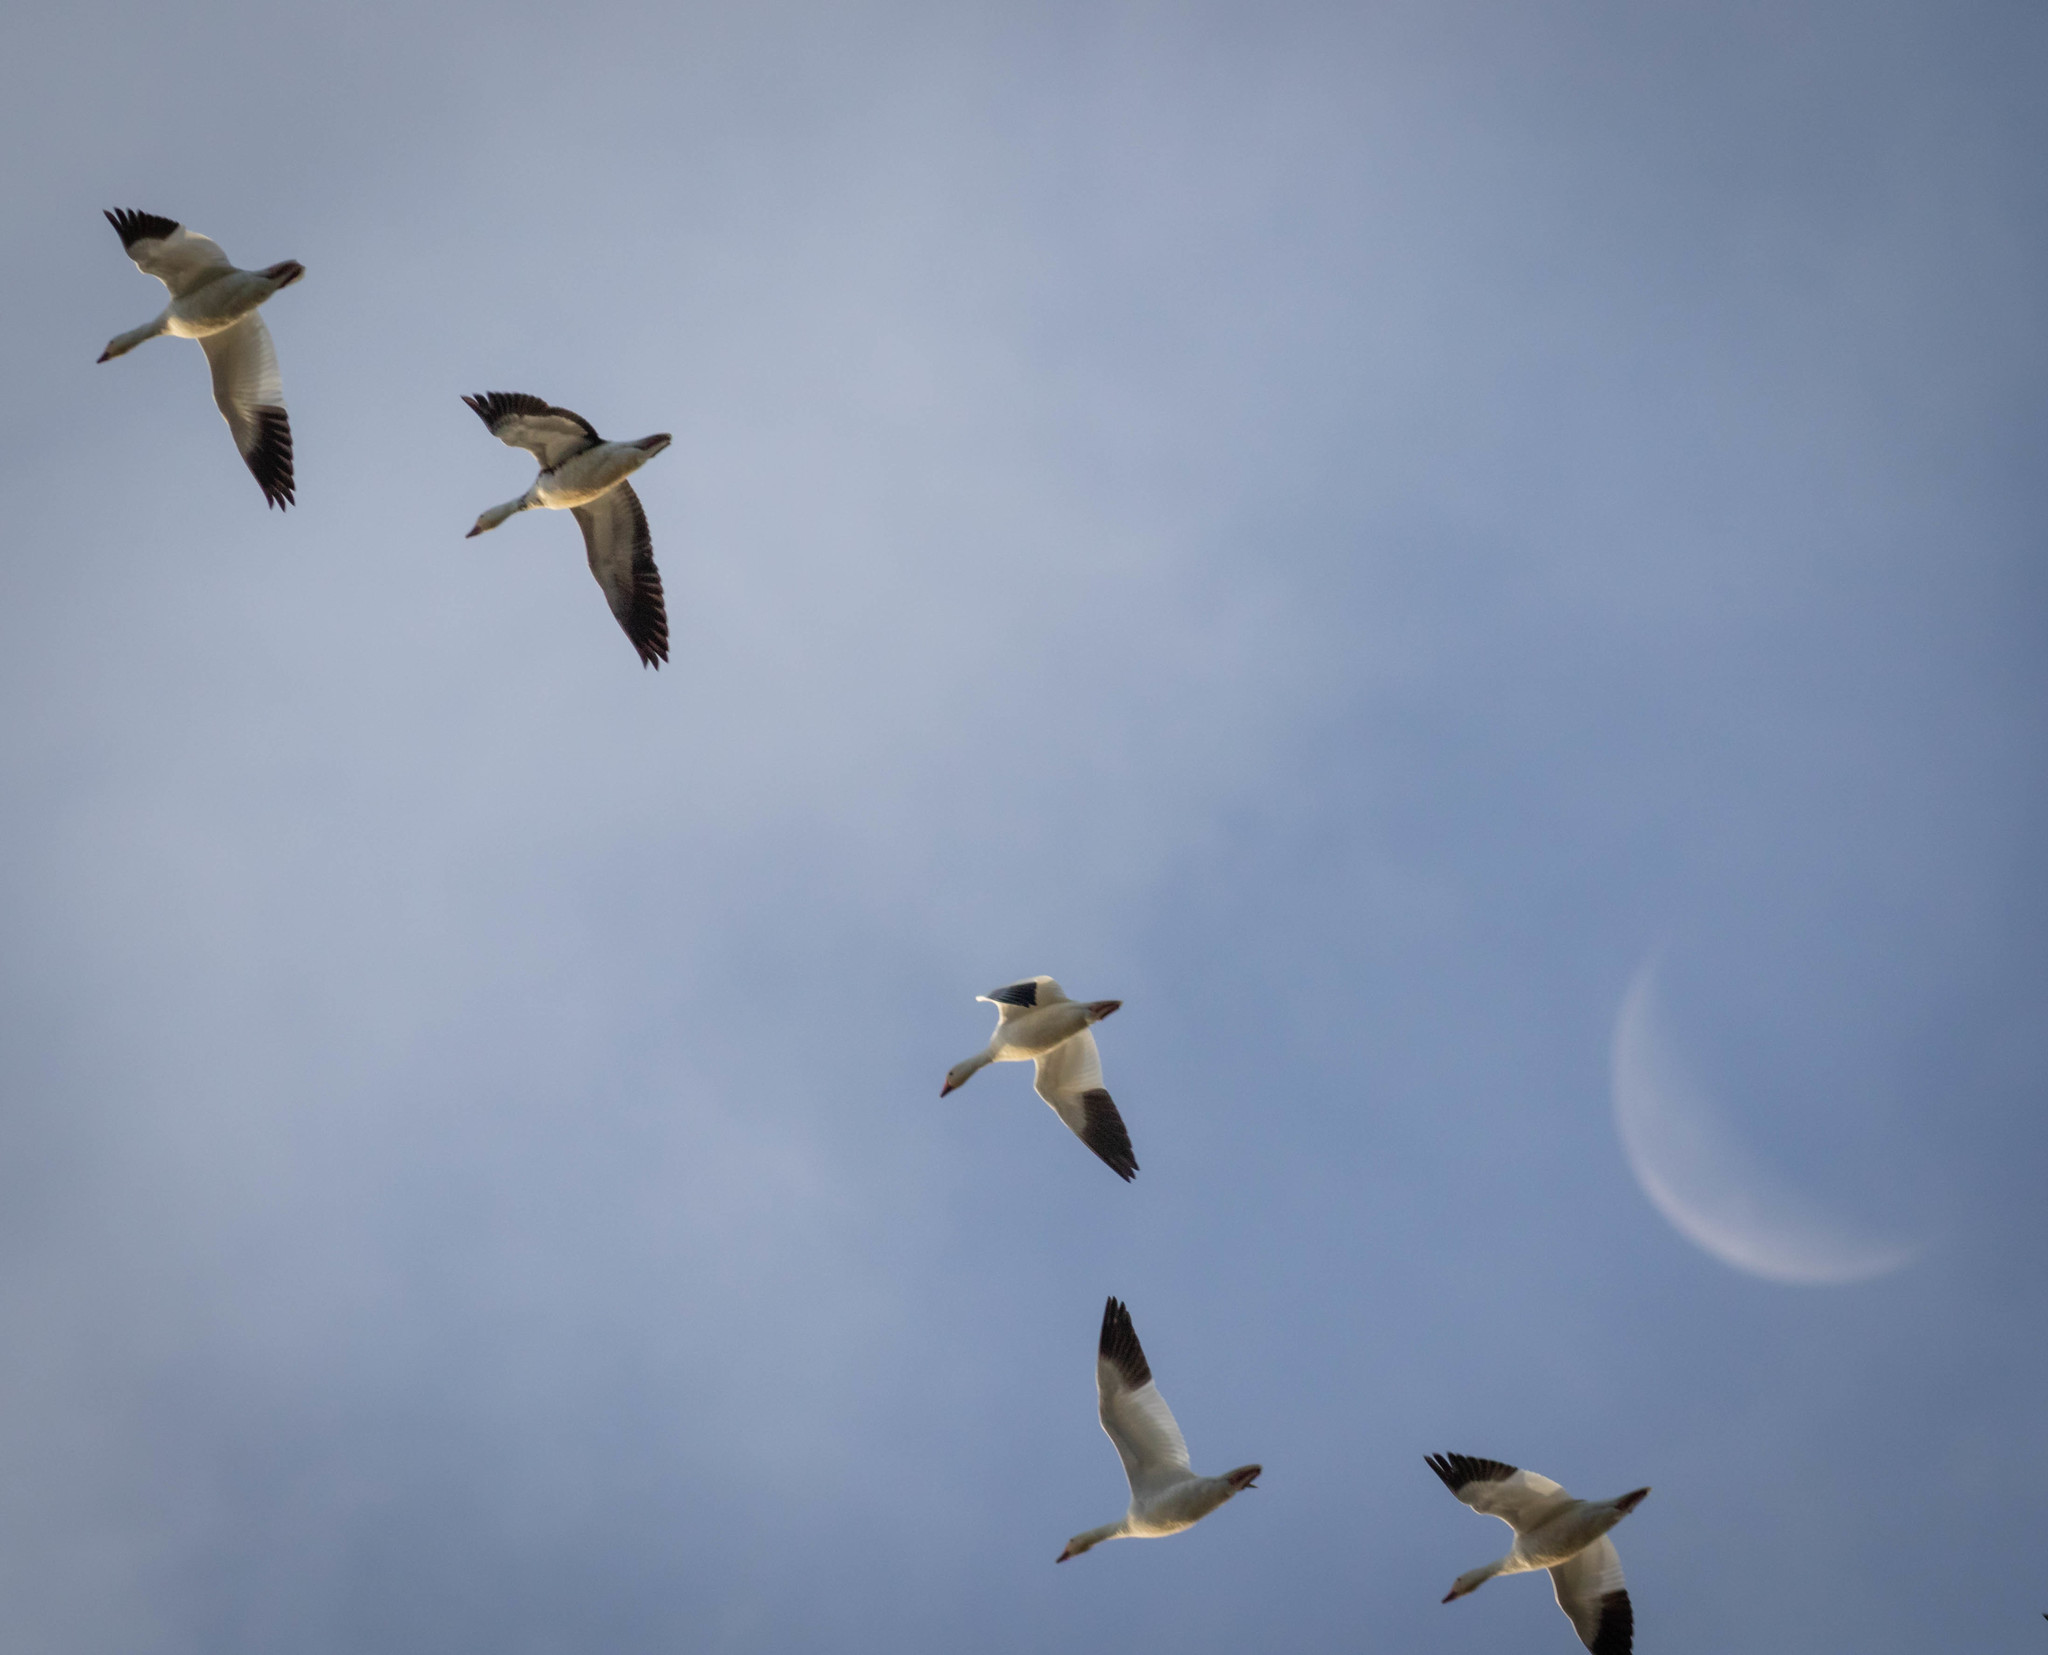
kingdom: Animalia
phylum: Chordata
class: Aves
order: Anseriformes
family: Anatidae
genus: Anser
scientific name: Anser caerulescens
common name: Snow goose
